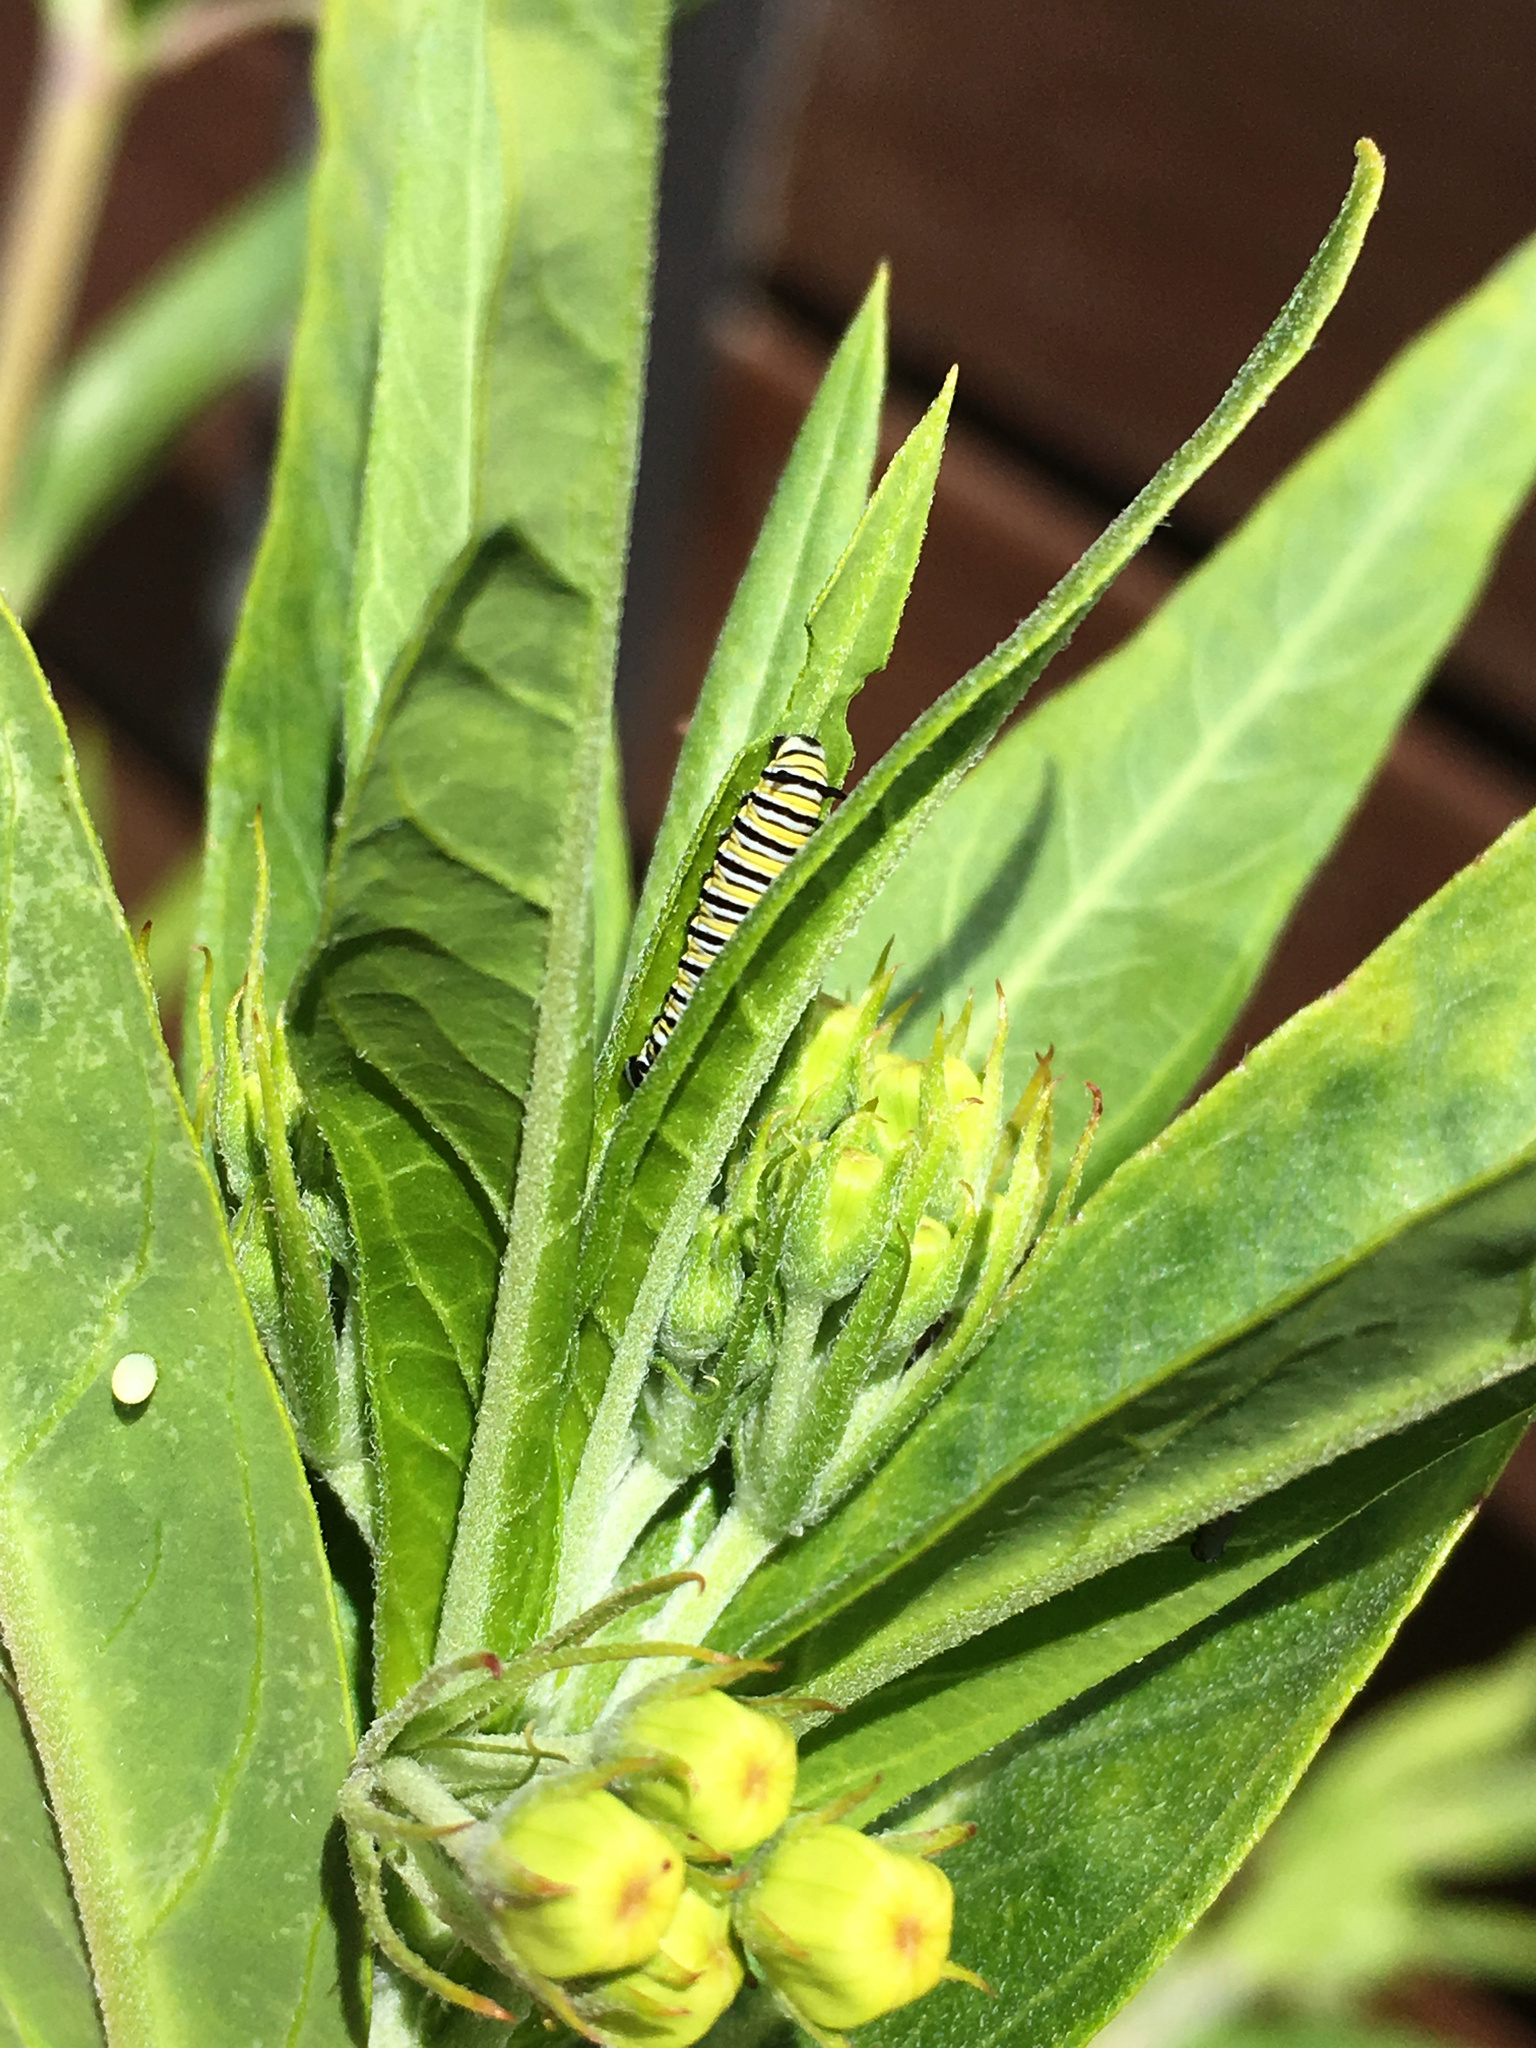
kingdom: Animalia
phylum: Arthropoda
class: Insecta
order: Lepidoptera
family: Nymphalidae
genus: Danaus
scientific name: Danaus plexippus
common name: Monarch
